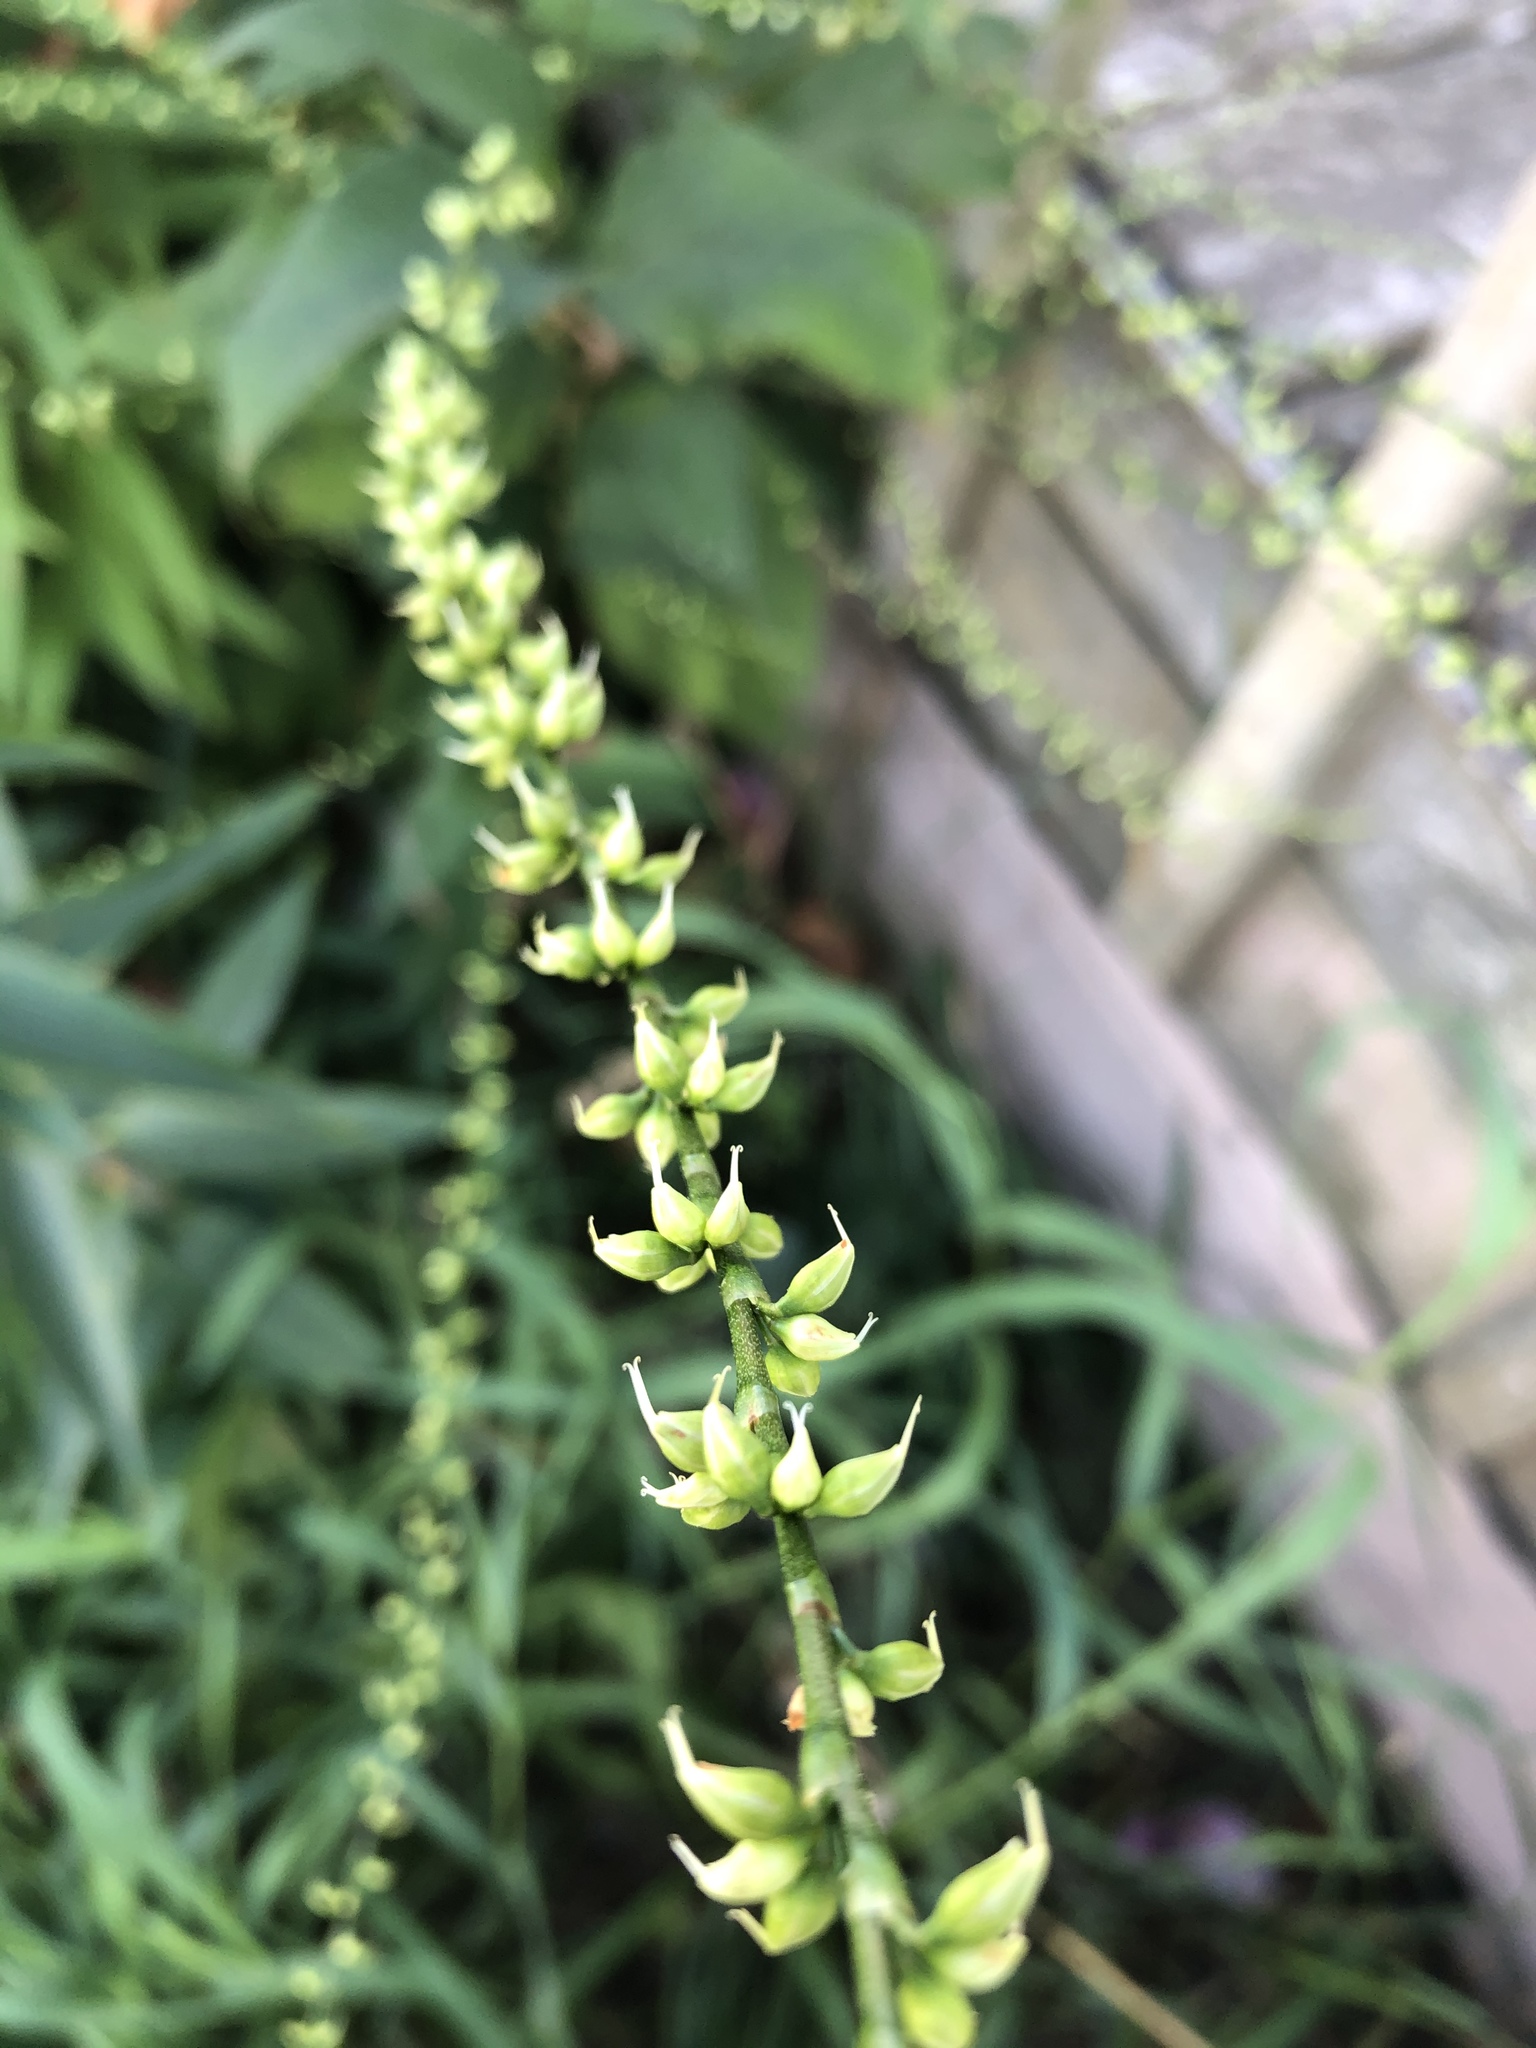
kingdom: Plantae
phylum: Tracheophyta
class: Magnoliopsida
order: Caryophyllales
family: Polygonaceae
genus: Persicaria
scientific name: Persicaria virginiana
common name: Jumpseed
